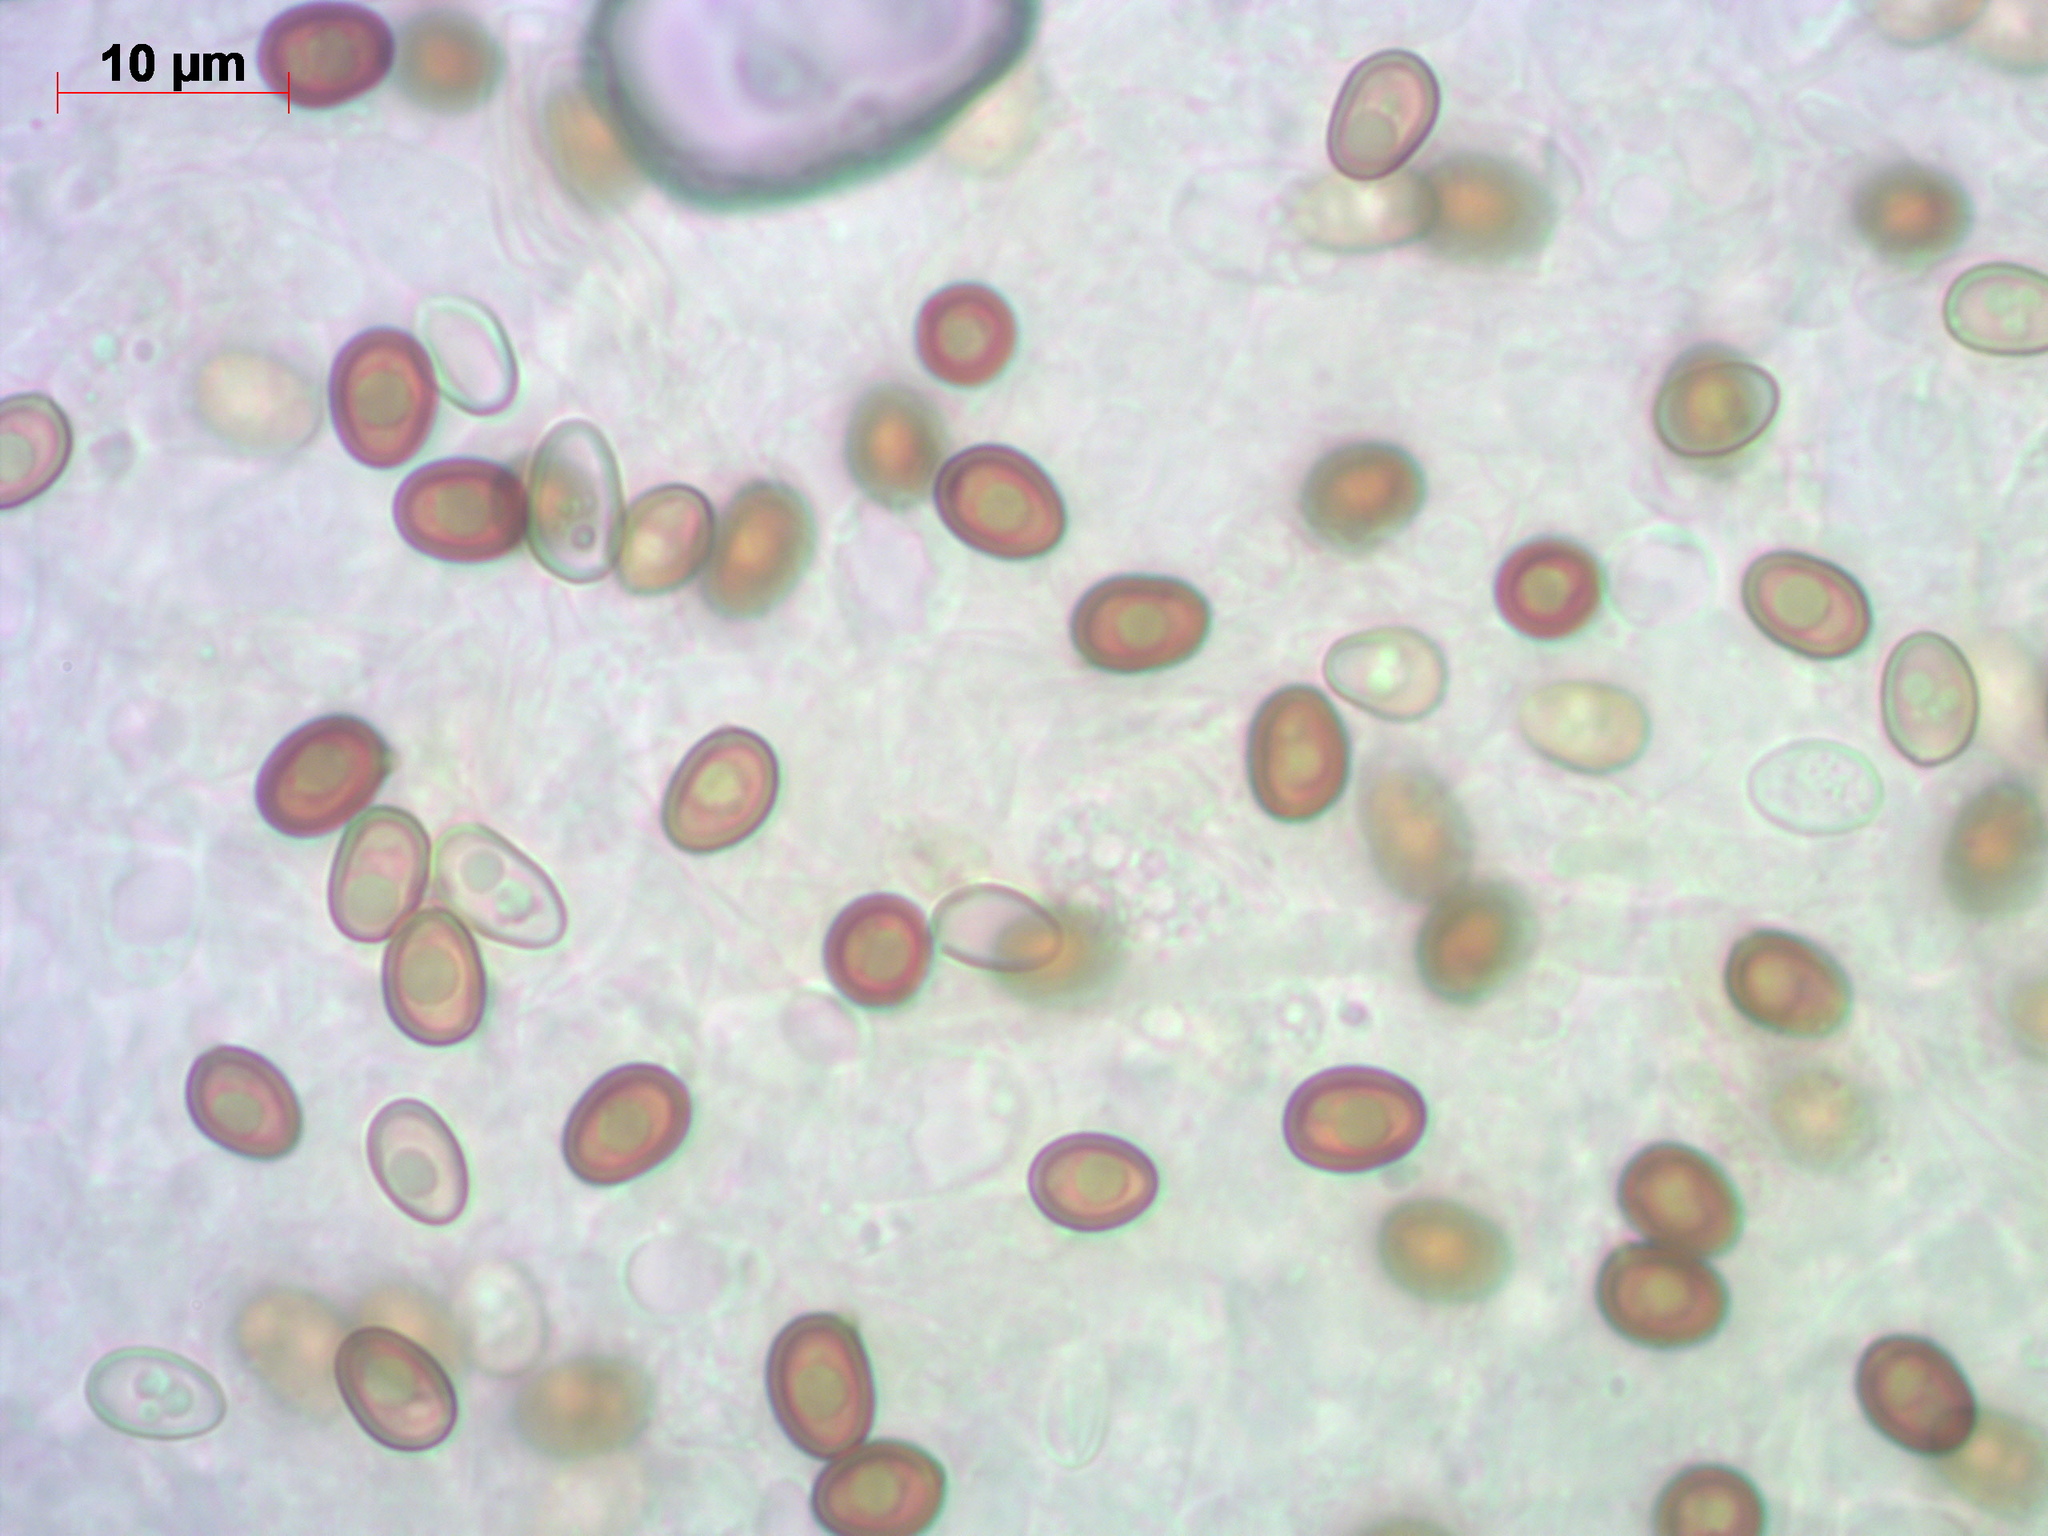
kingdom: Fungi
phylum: Basidiomycota
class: Agaricomycetes
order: Agaricales
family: Agaricaceae
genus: Agaricus
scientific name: Agaricus sylvicola
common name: Wood mushroom
